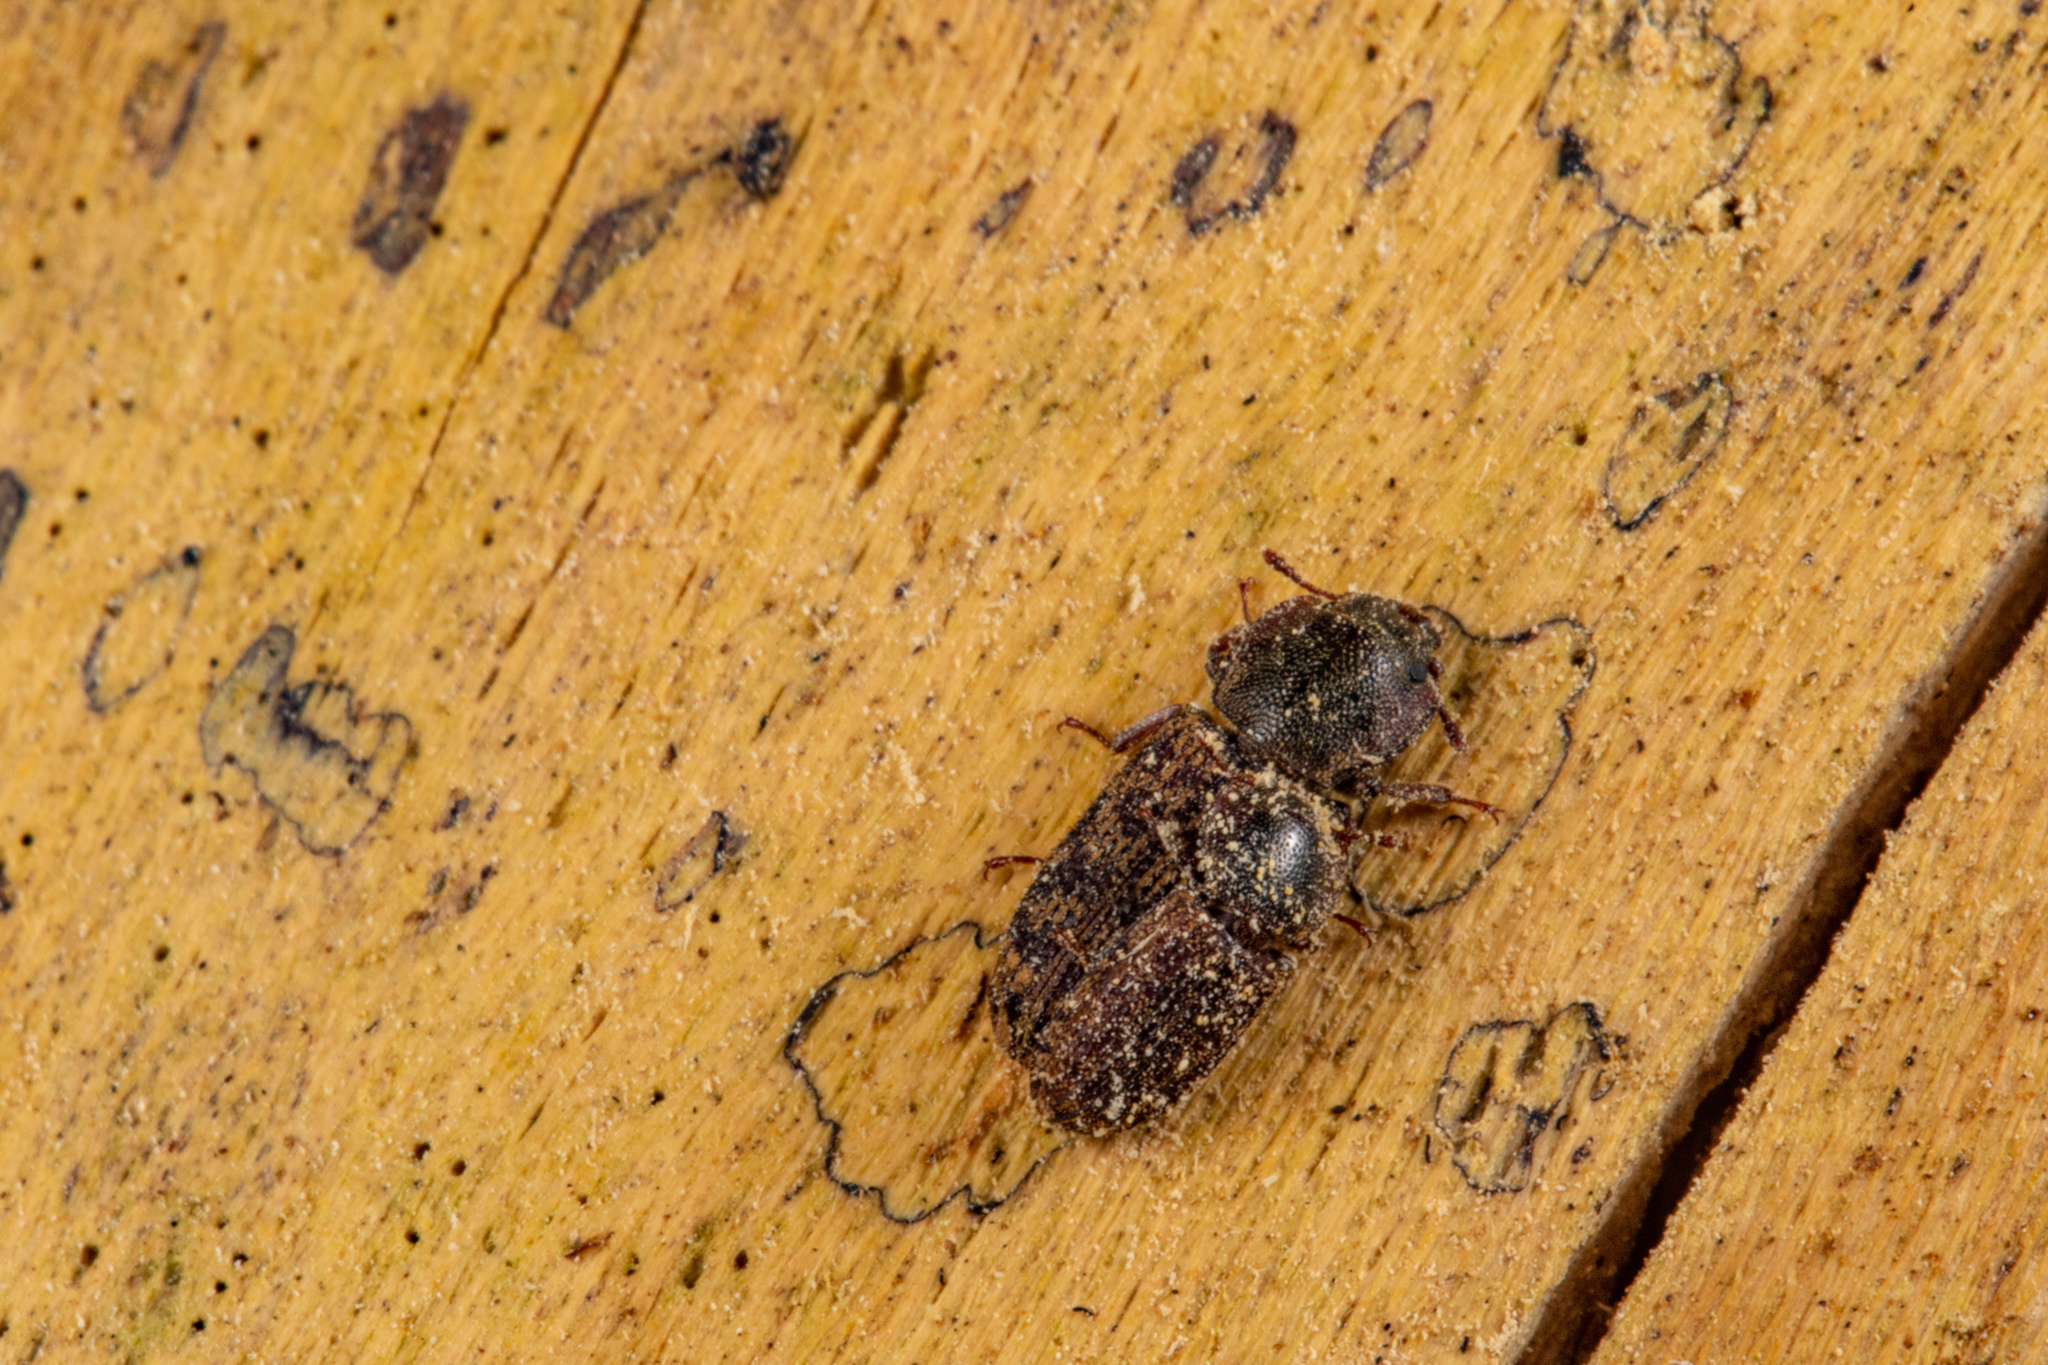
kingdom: Animalia
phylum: Arthropoda
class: Insecta
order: Coleoptera
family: Trogossitidae
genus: Phanodesta
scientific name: Phanodesta
